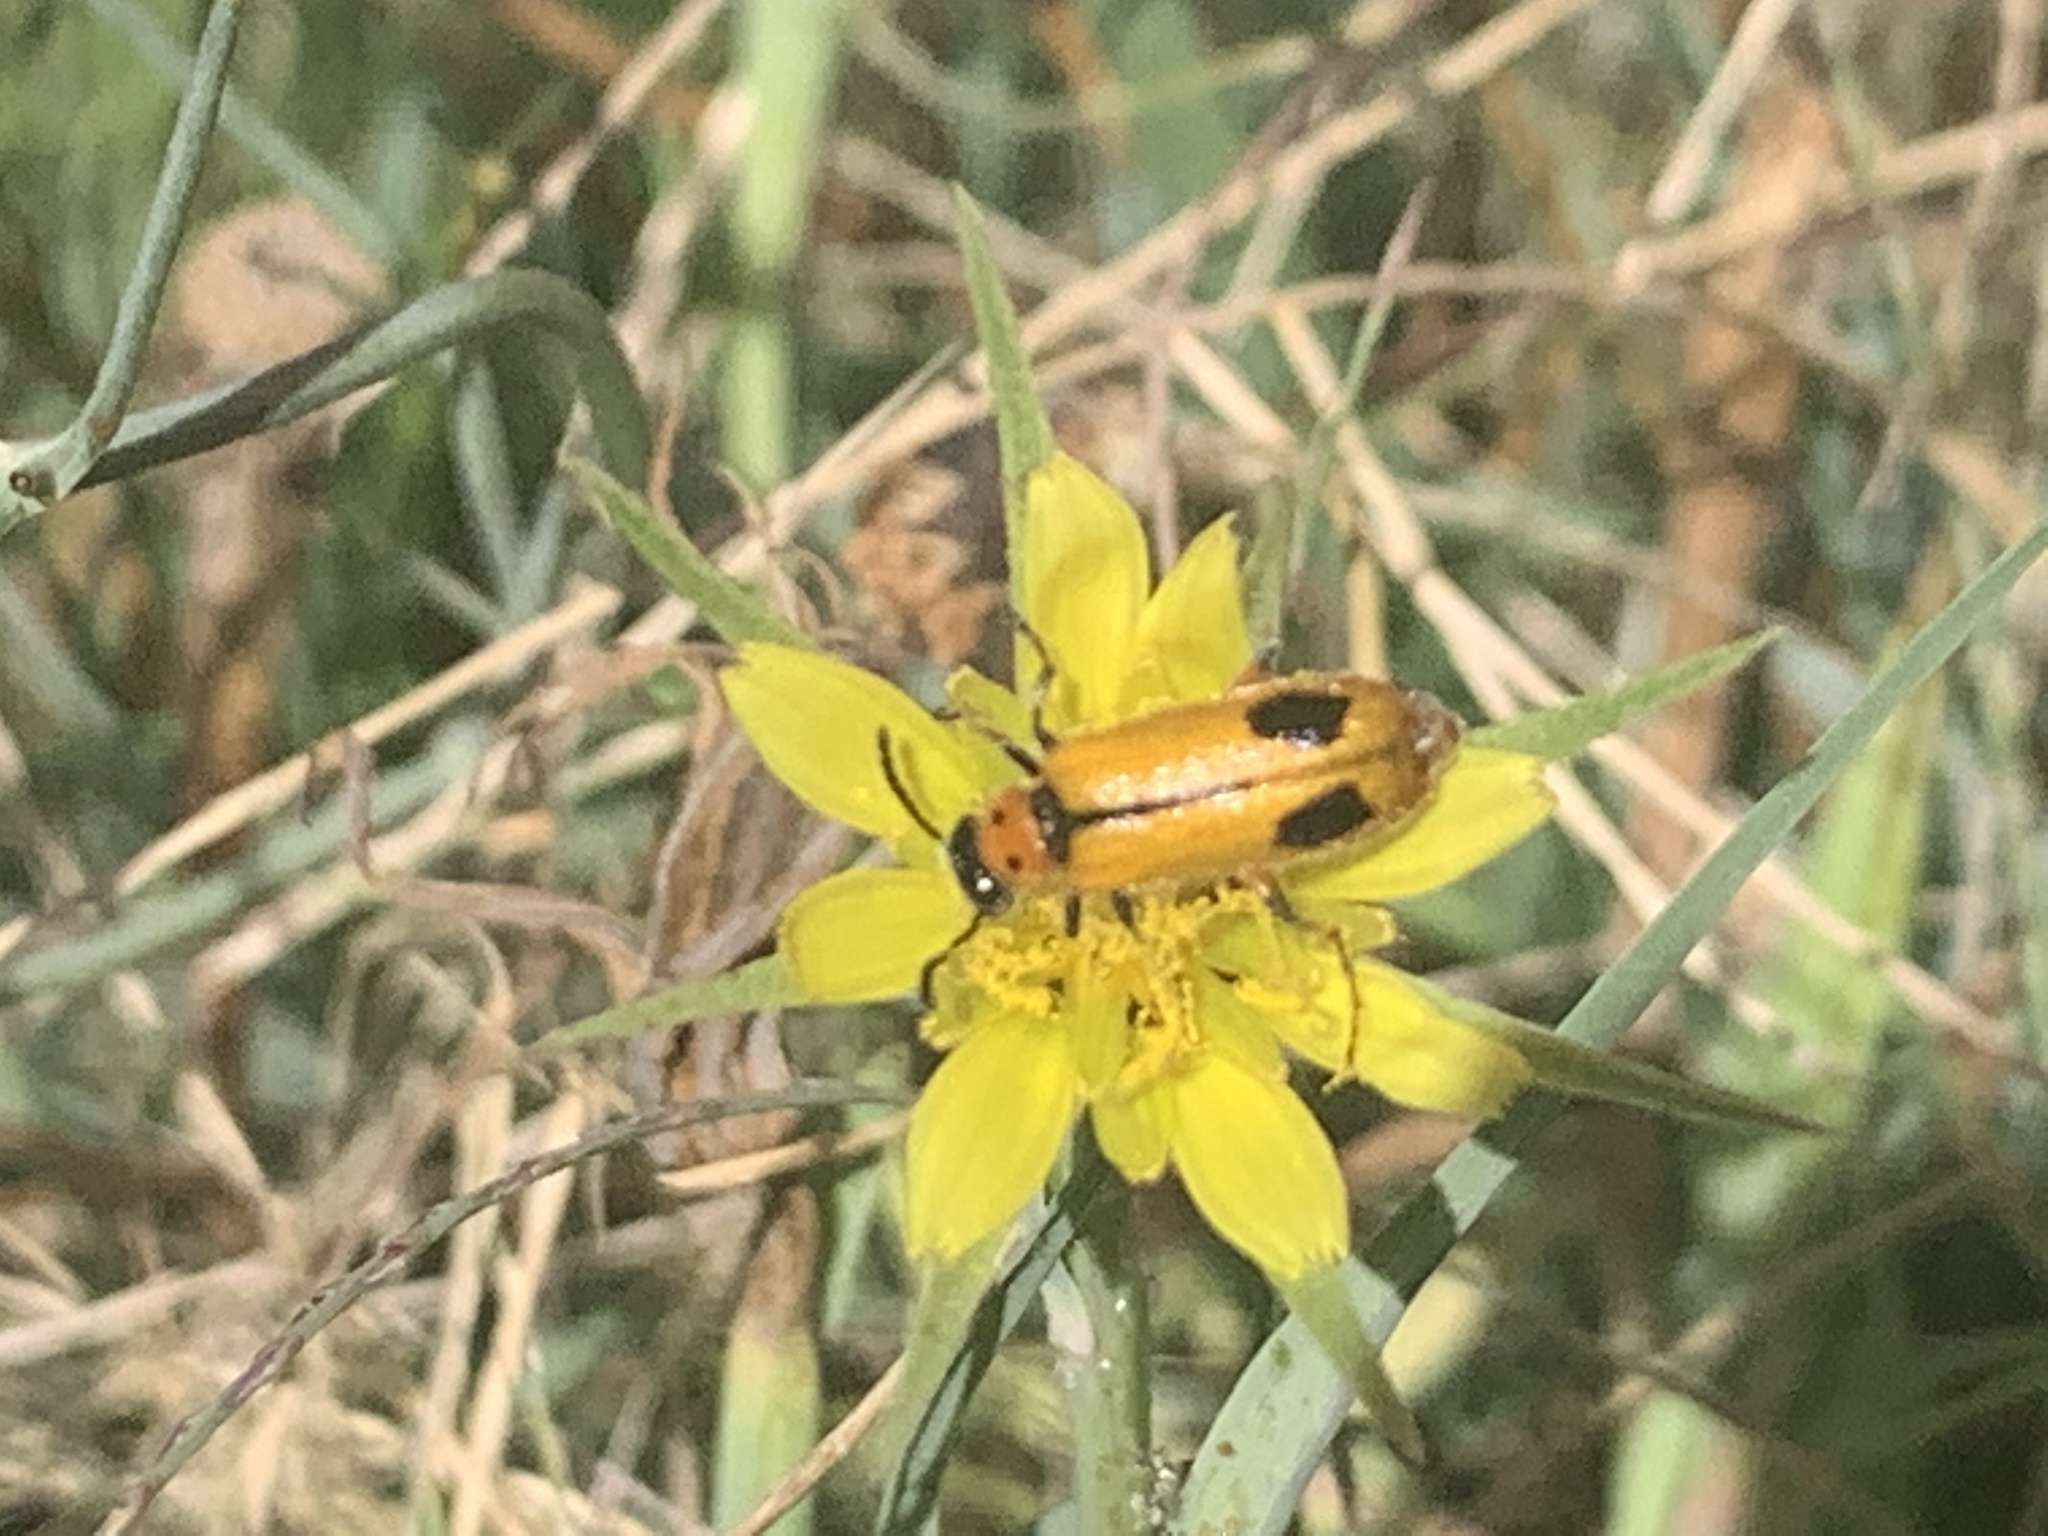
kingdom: Animalia
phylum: Arthropoda
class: Insecta
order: Coleoptera
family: Meloidae
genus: Lytta
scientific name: Lytta biguttata
